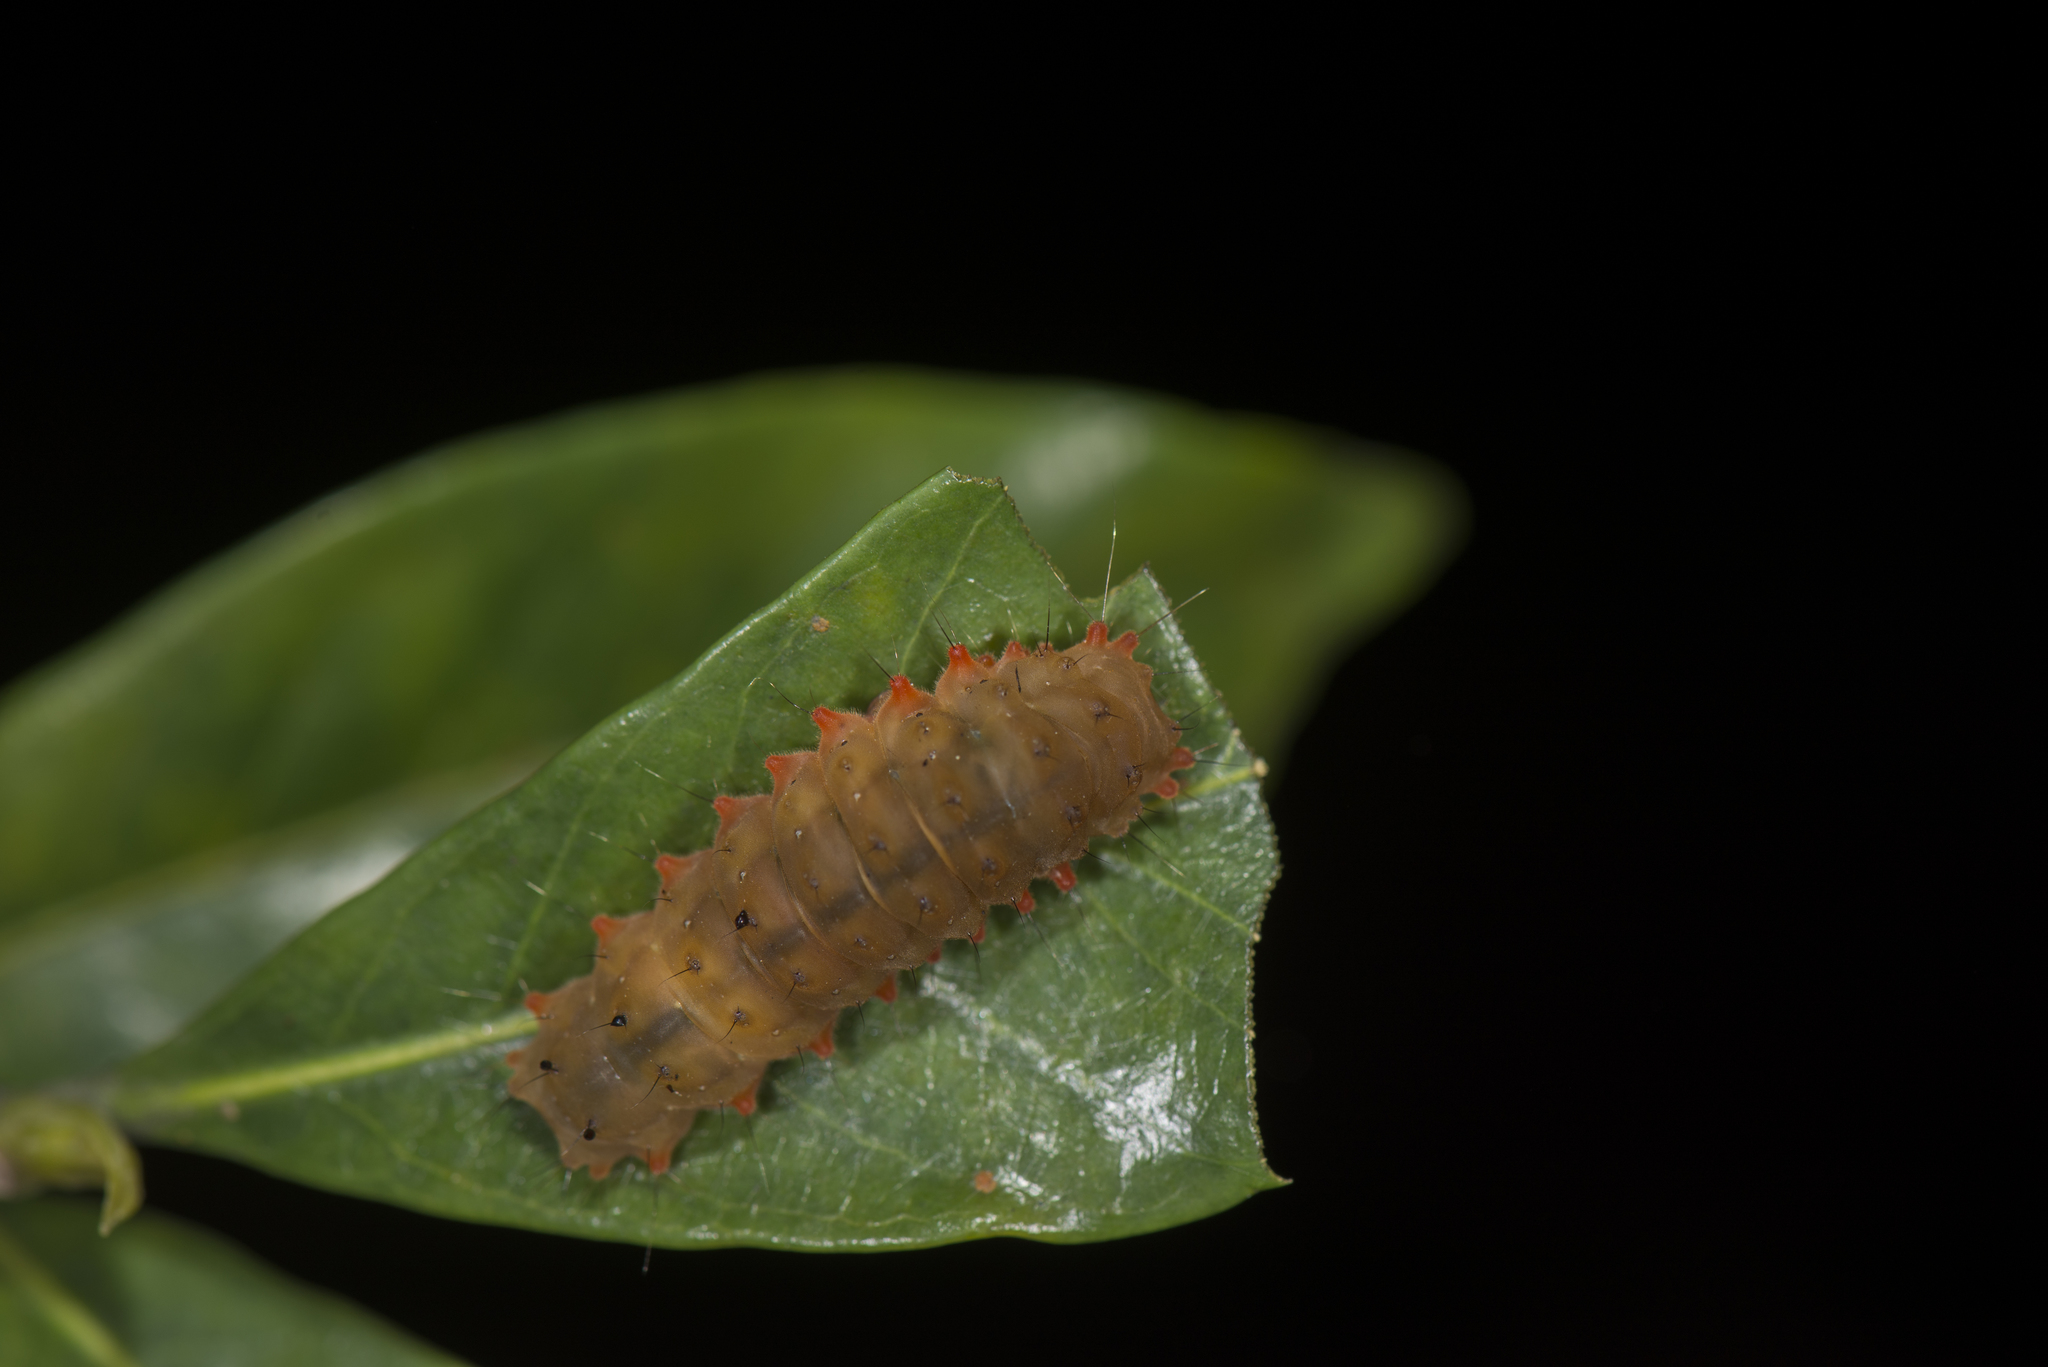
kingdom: Animalia
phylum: Arthropoda
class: Insecta
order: Lepidoptera
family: Zygaenidae
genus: Eterusia
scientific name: Eterusia aedea
